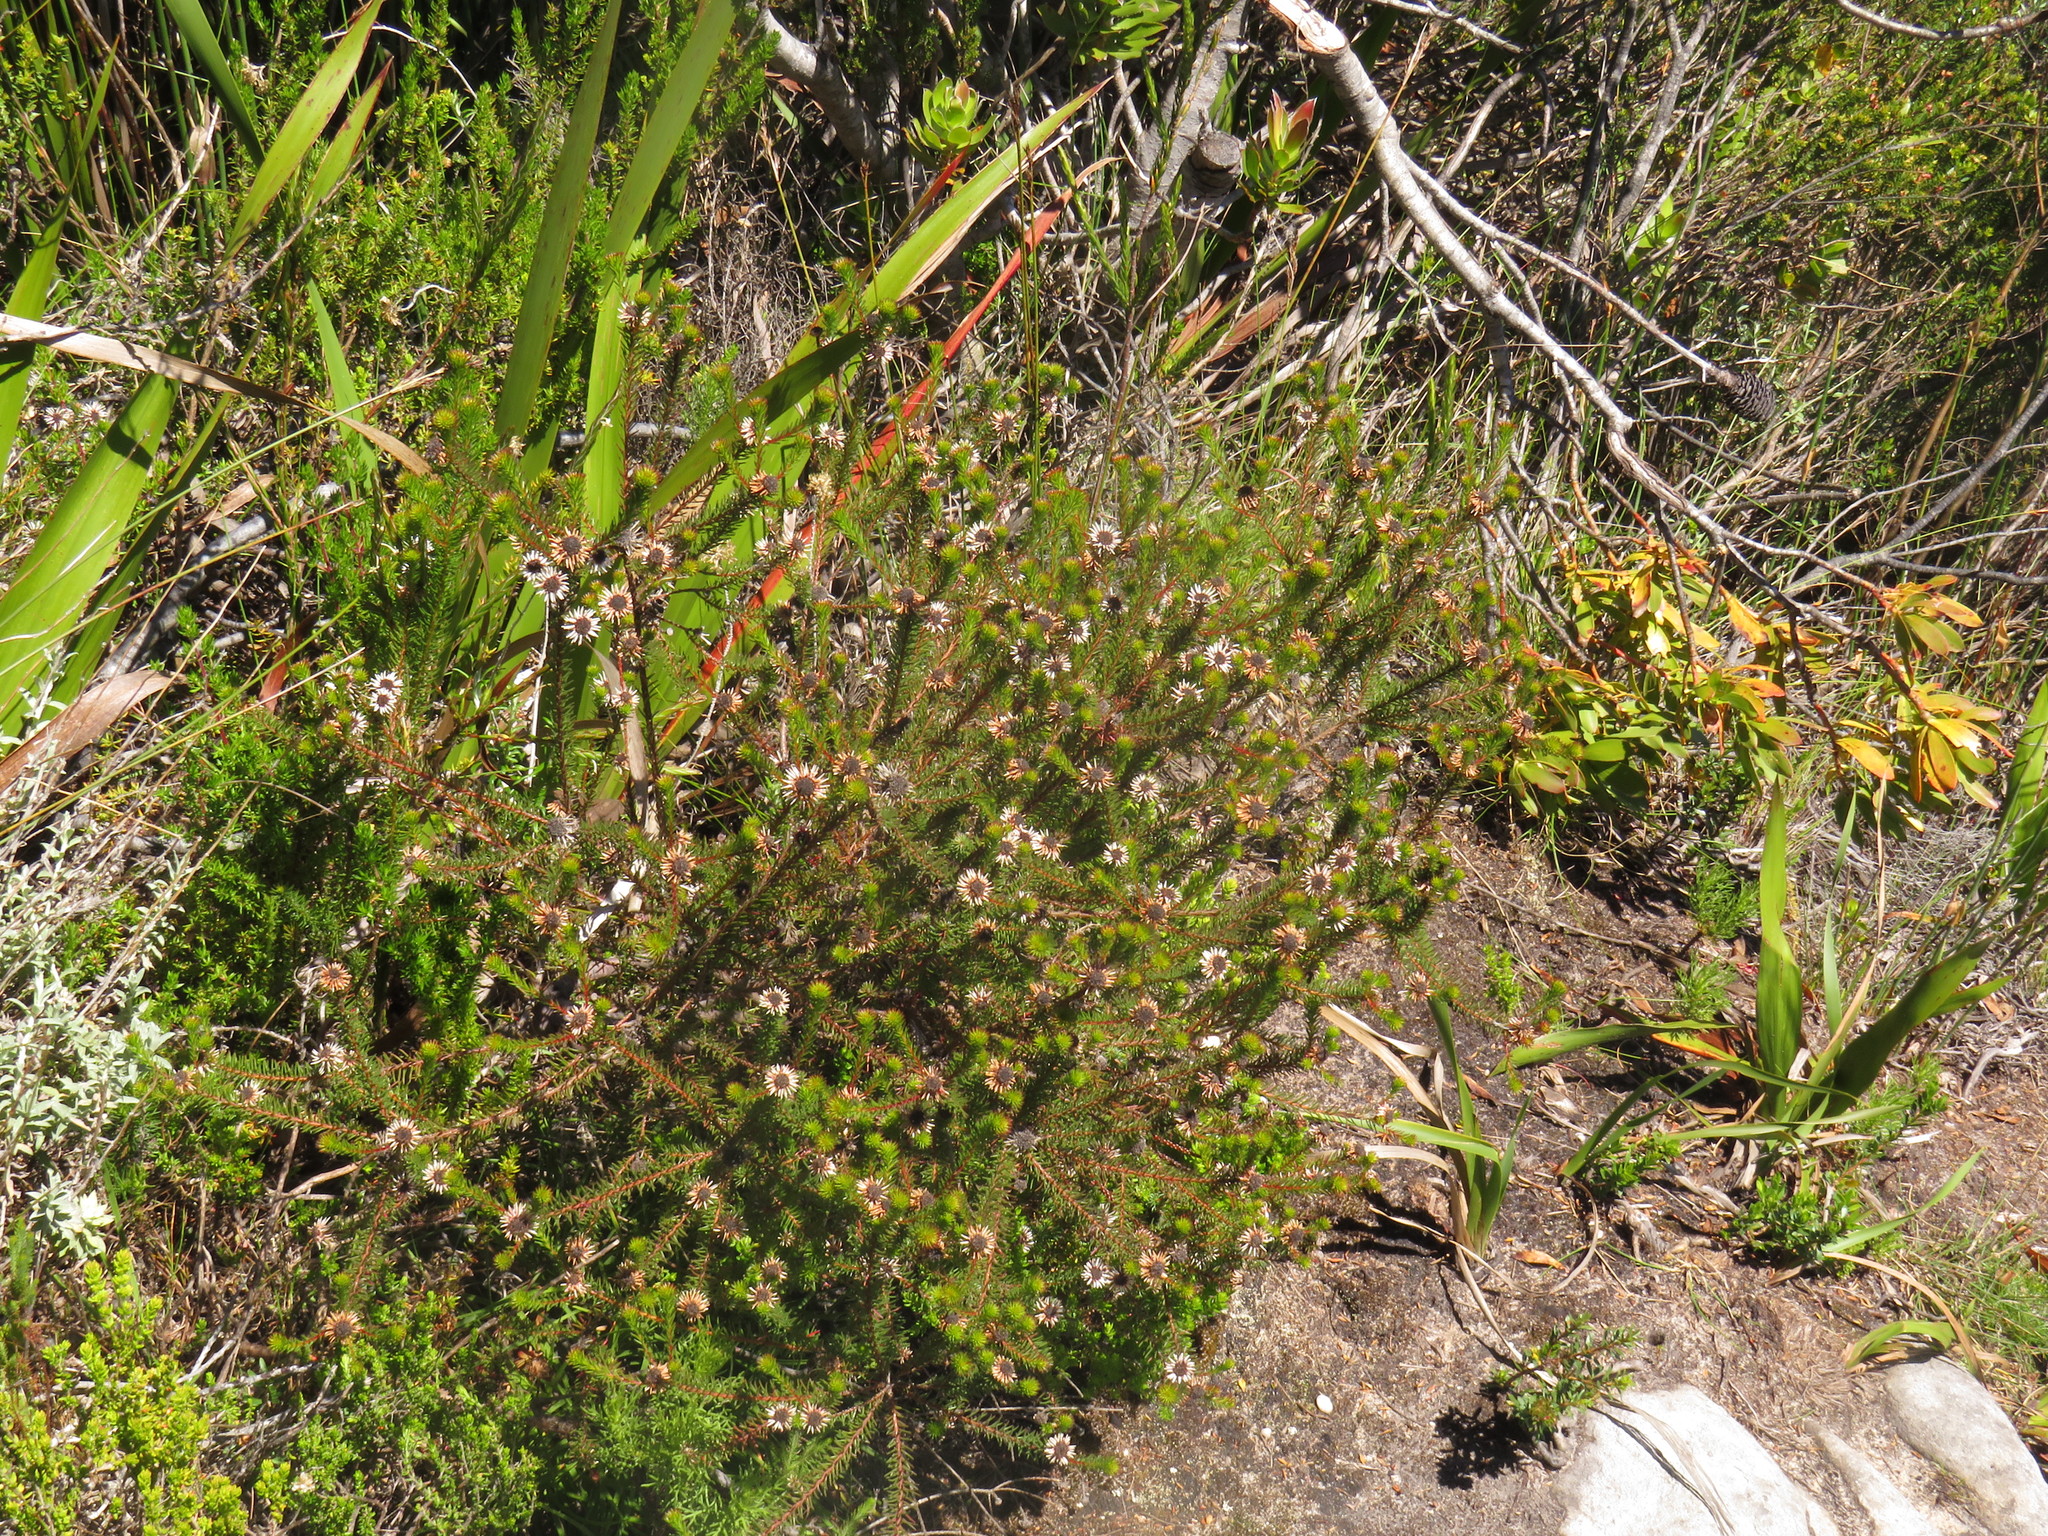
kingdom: Plantae
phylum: Tracheophyta
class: Magnoliopsida
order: Bruniales
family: Bruniaceae
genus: Staavia
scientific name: Staavia glutinosa
